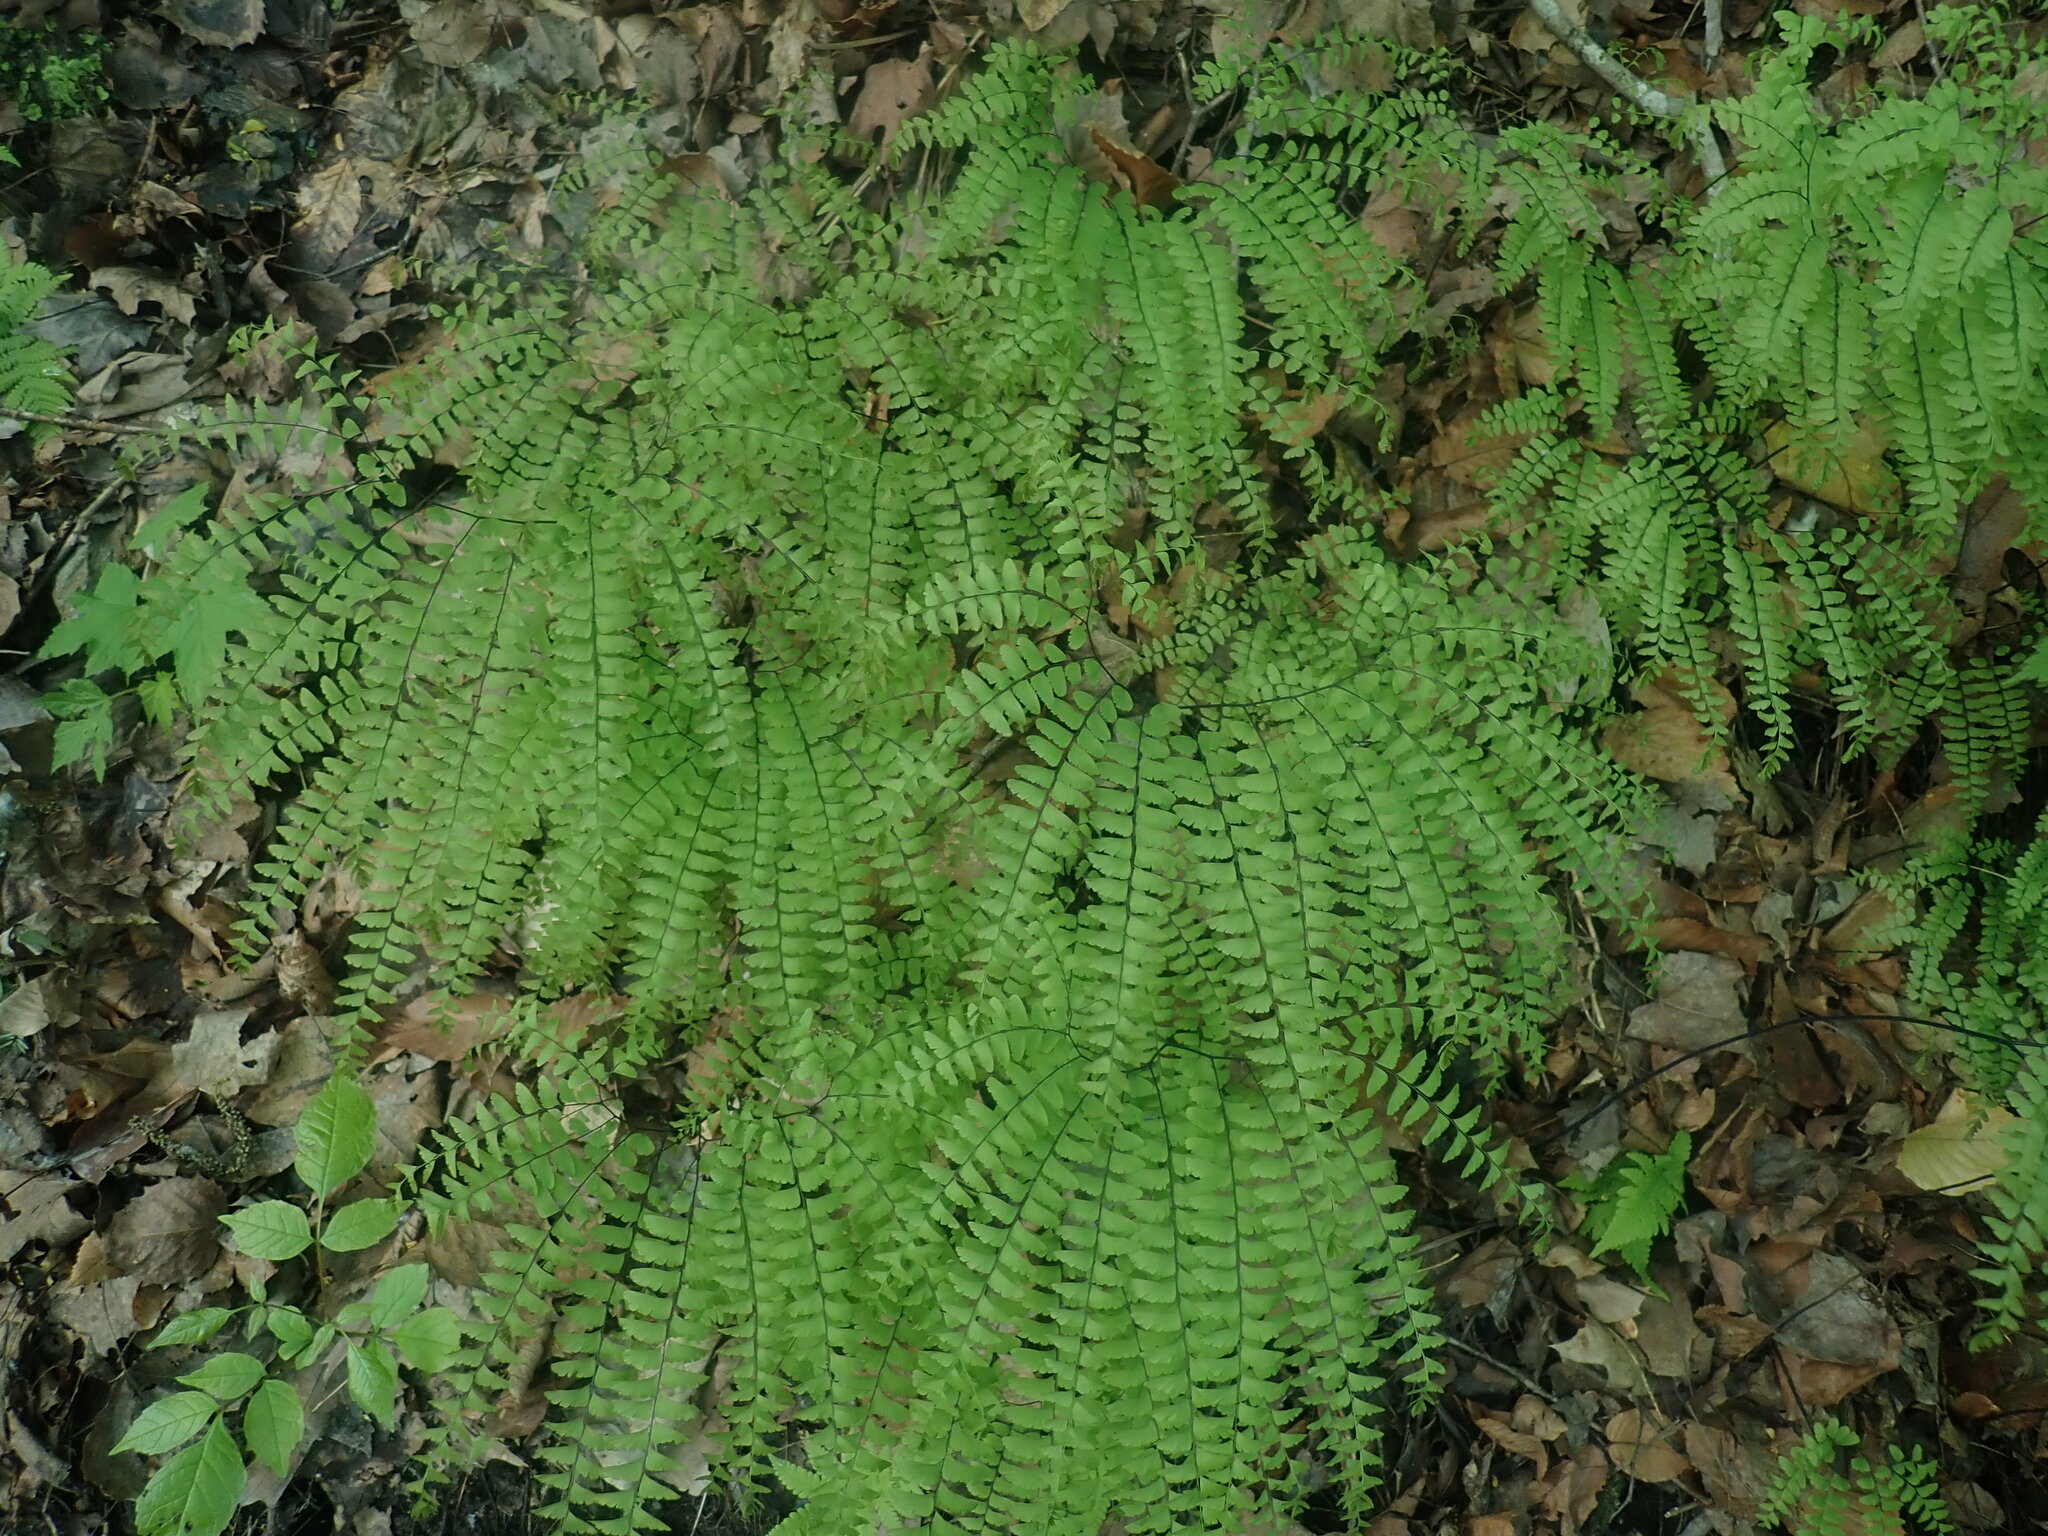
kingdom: Plantae
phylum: Tracheophyta
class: Polypodiopsida
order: Polypodiales
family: Pteridaceae
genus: Adiantum
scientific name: Adiantum pedatum
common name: Five-finger fern
